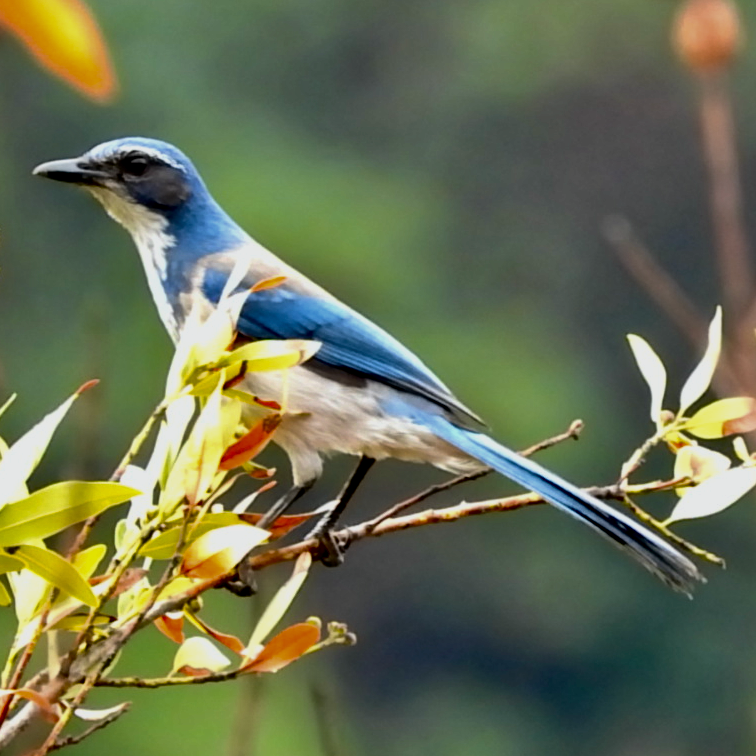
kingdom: Animalia
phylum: Chordata
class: Aves
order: Passeriformes
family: Corvidae
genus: Aphelocoma
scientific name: Aphelocoma californica
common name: California scrub-jay
